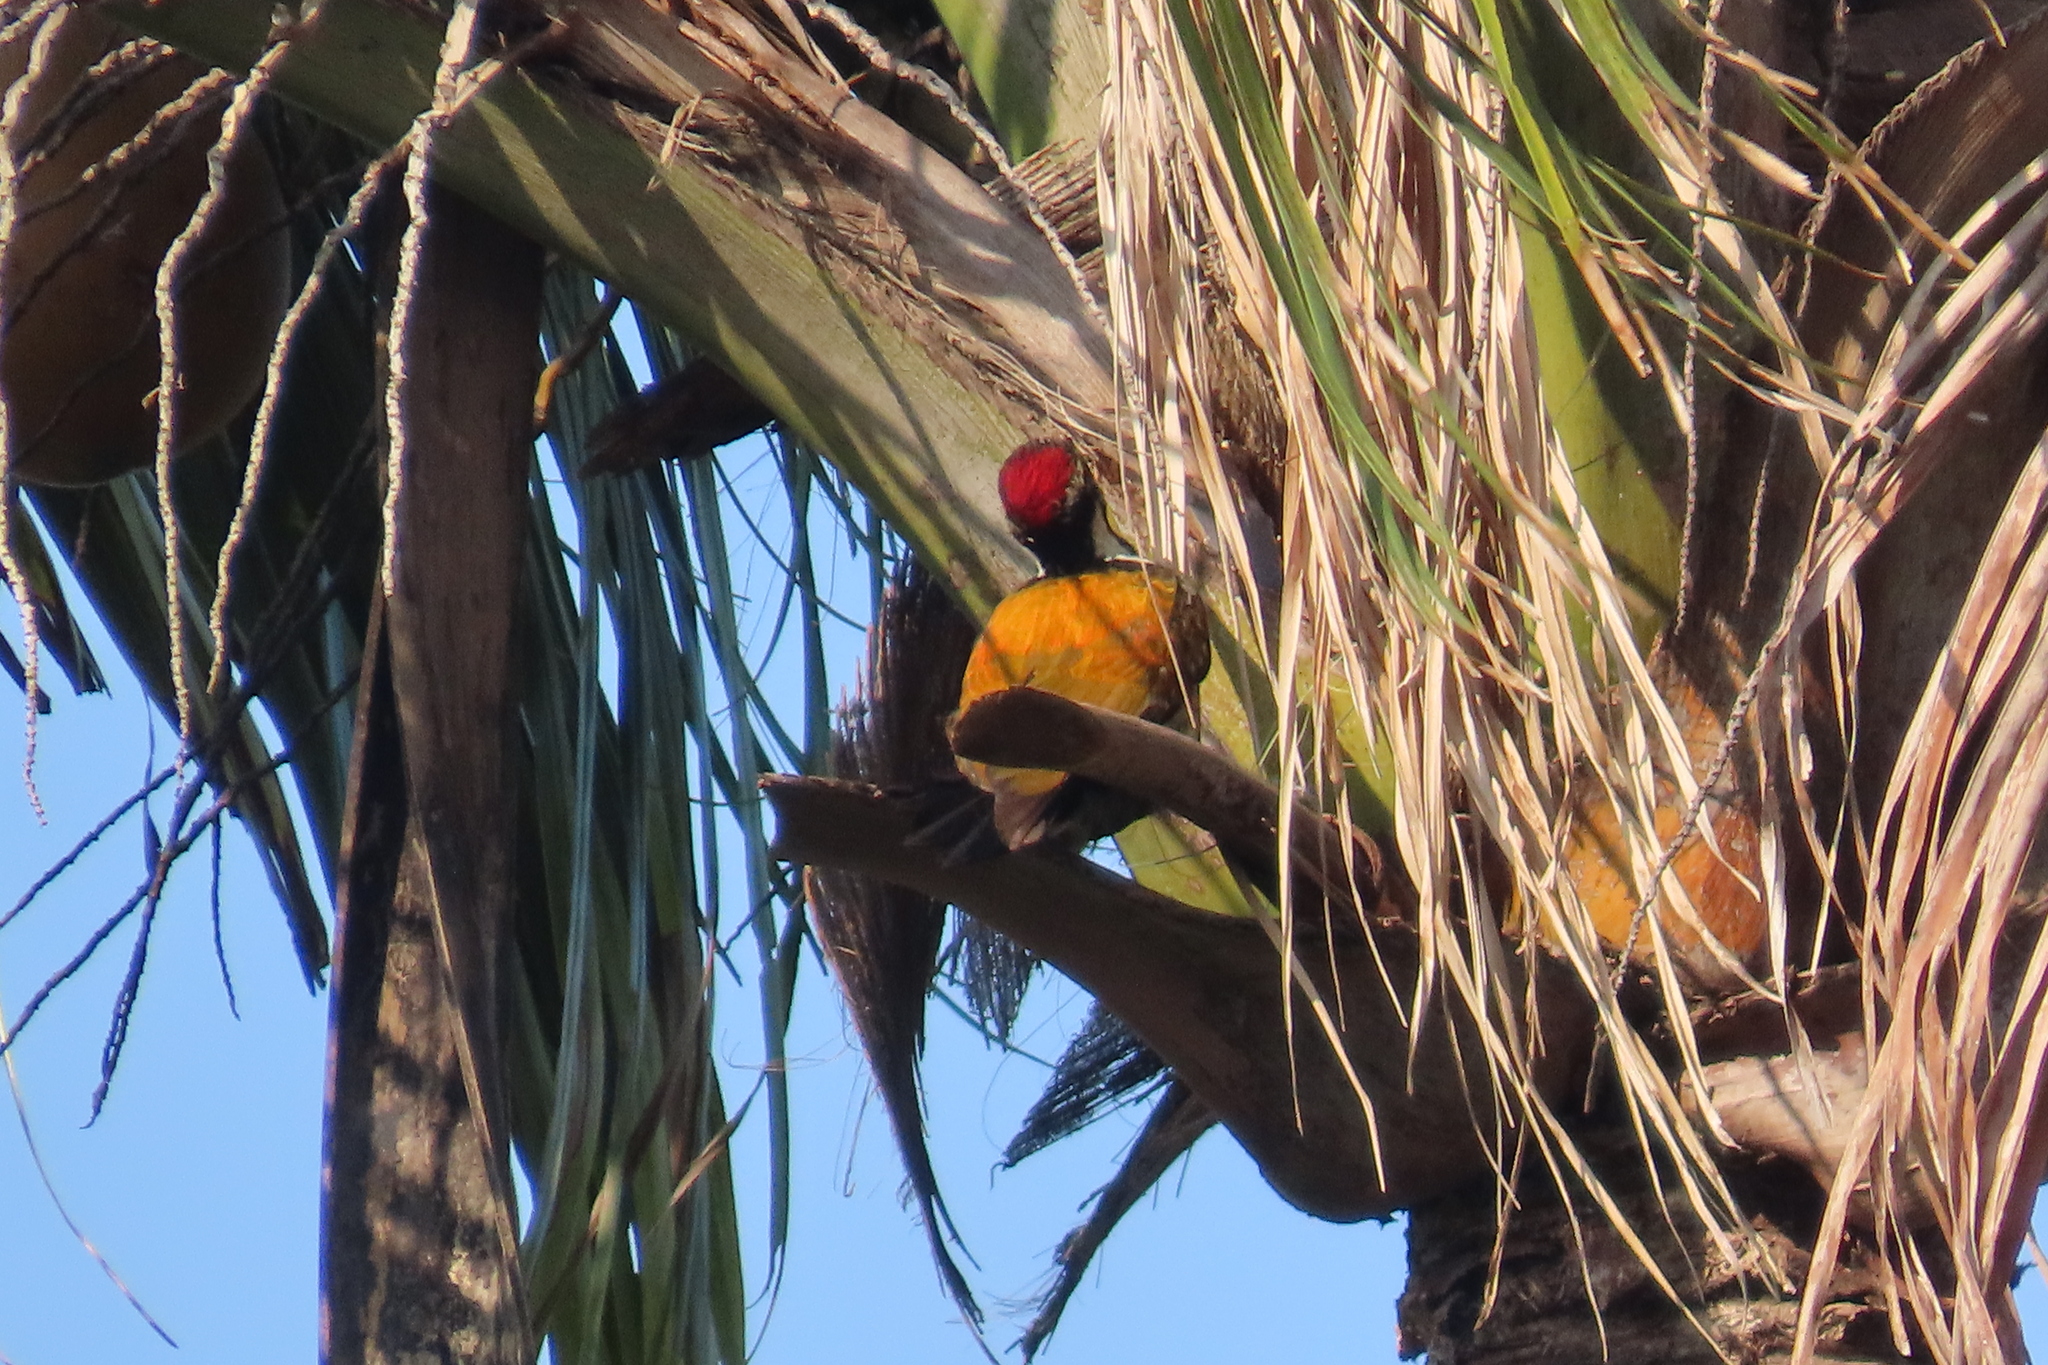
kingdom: Animalia
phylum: Chordata
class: Aves
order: Piciformes
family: Picidae
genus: Dinopium
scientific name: Dinopium benghalense
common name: Black-rumped flameback
